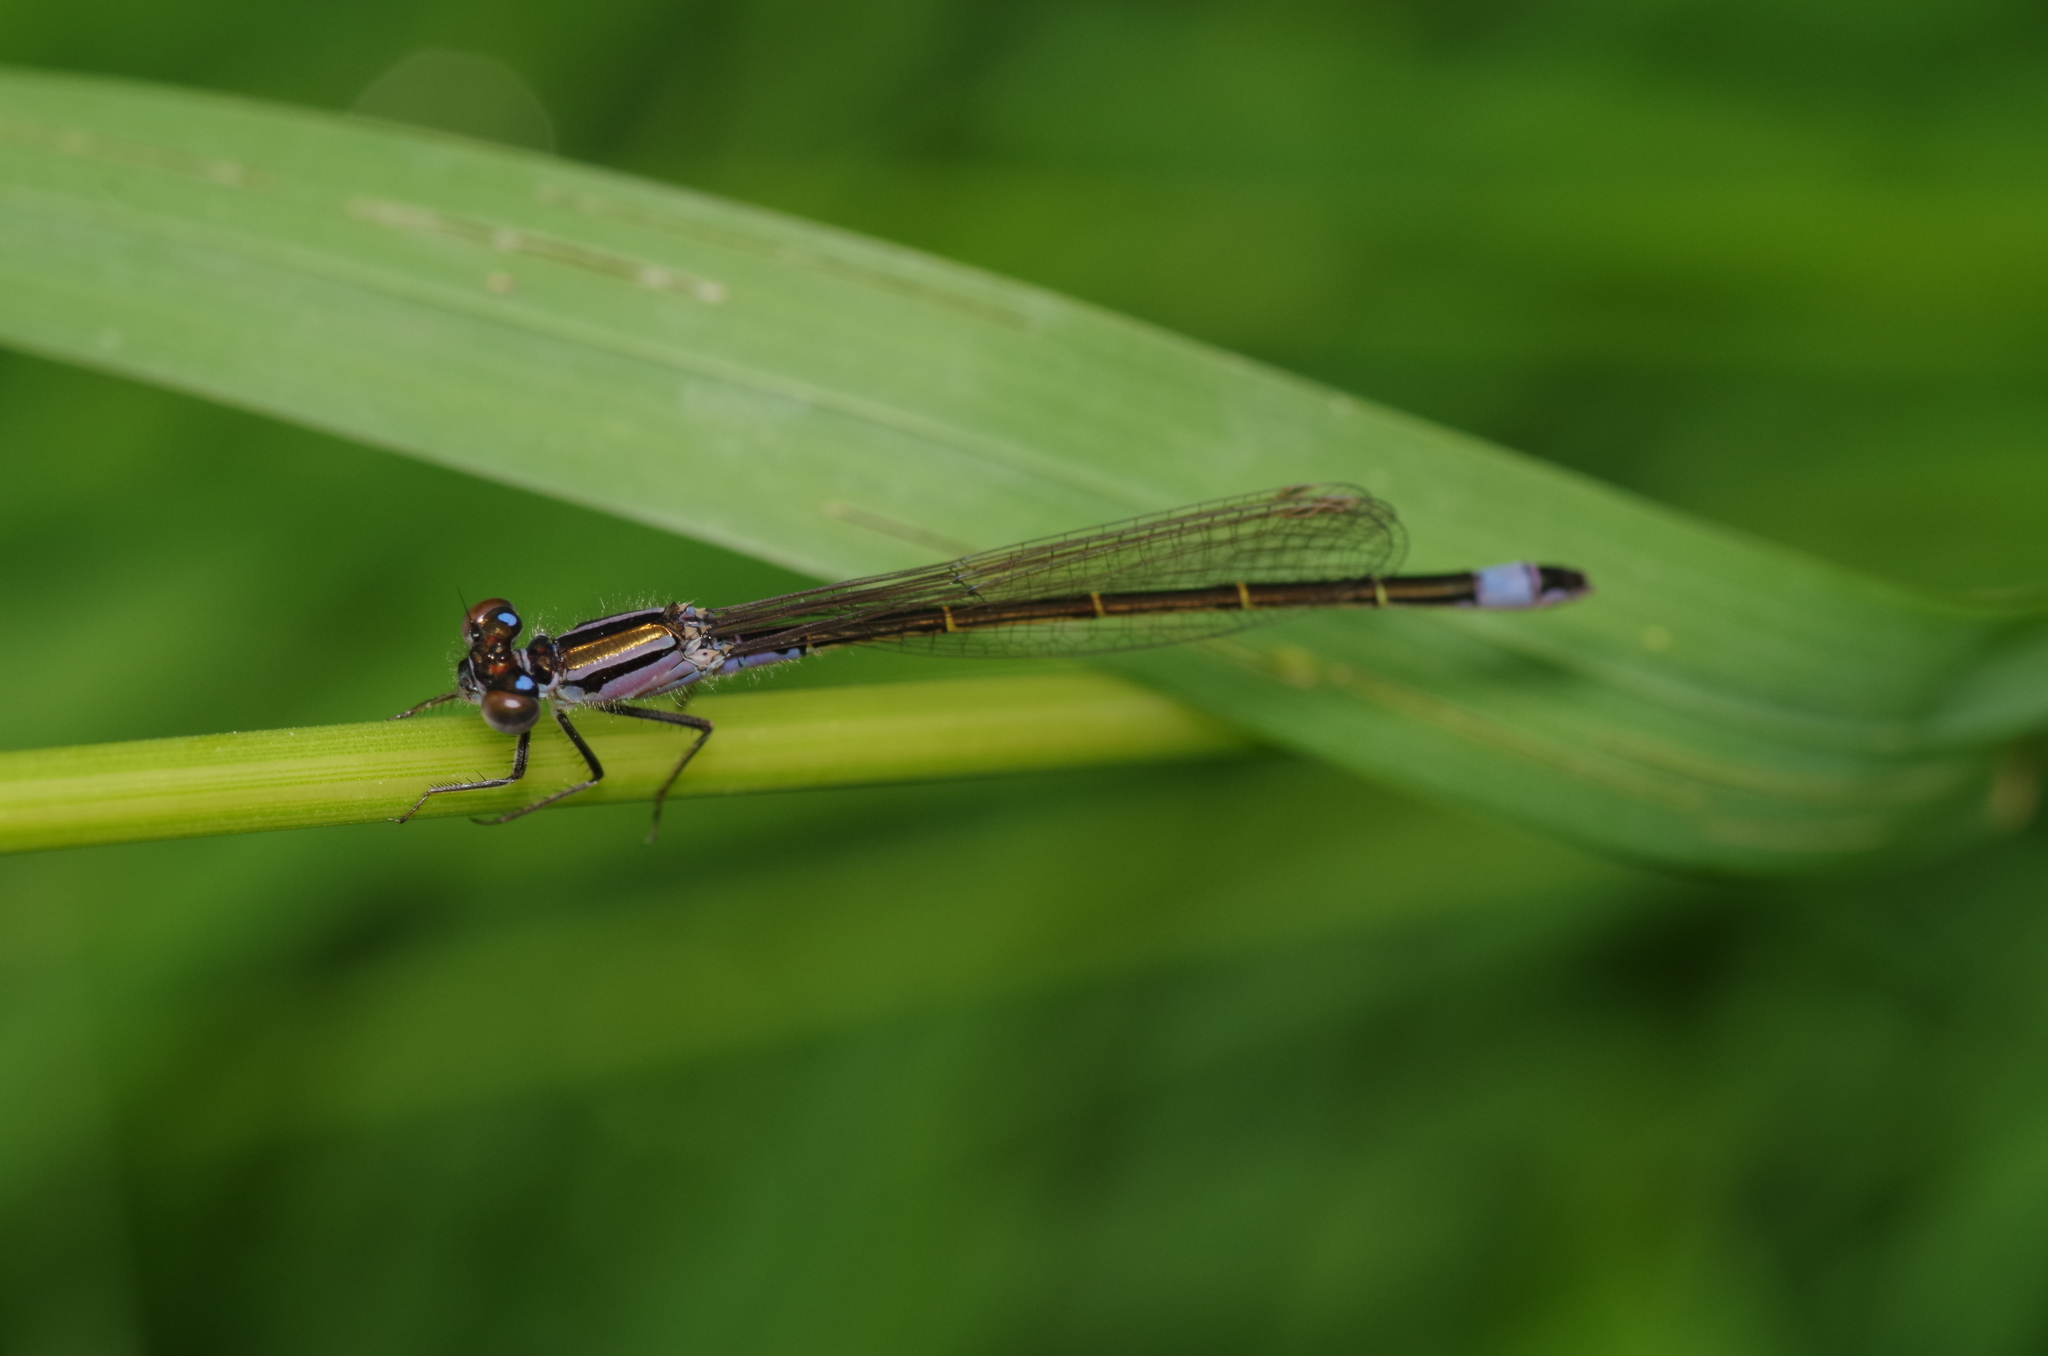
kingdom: Animalia
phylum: Arthropoda
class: Insecta
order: Odonata
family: Coenagrionidae
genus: Ischnura
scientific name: Ischnura elegans
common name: Blue-tailed damselfly
